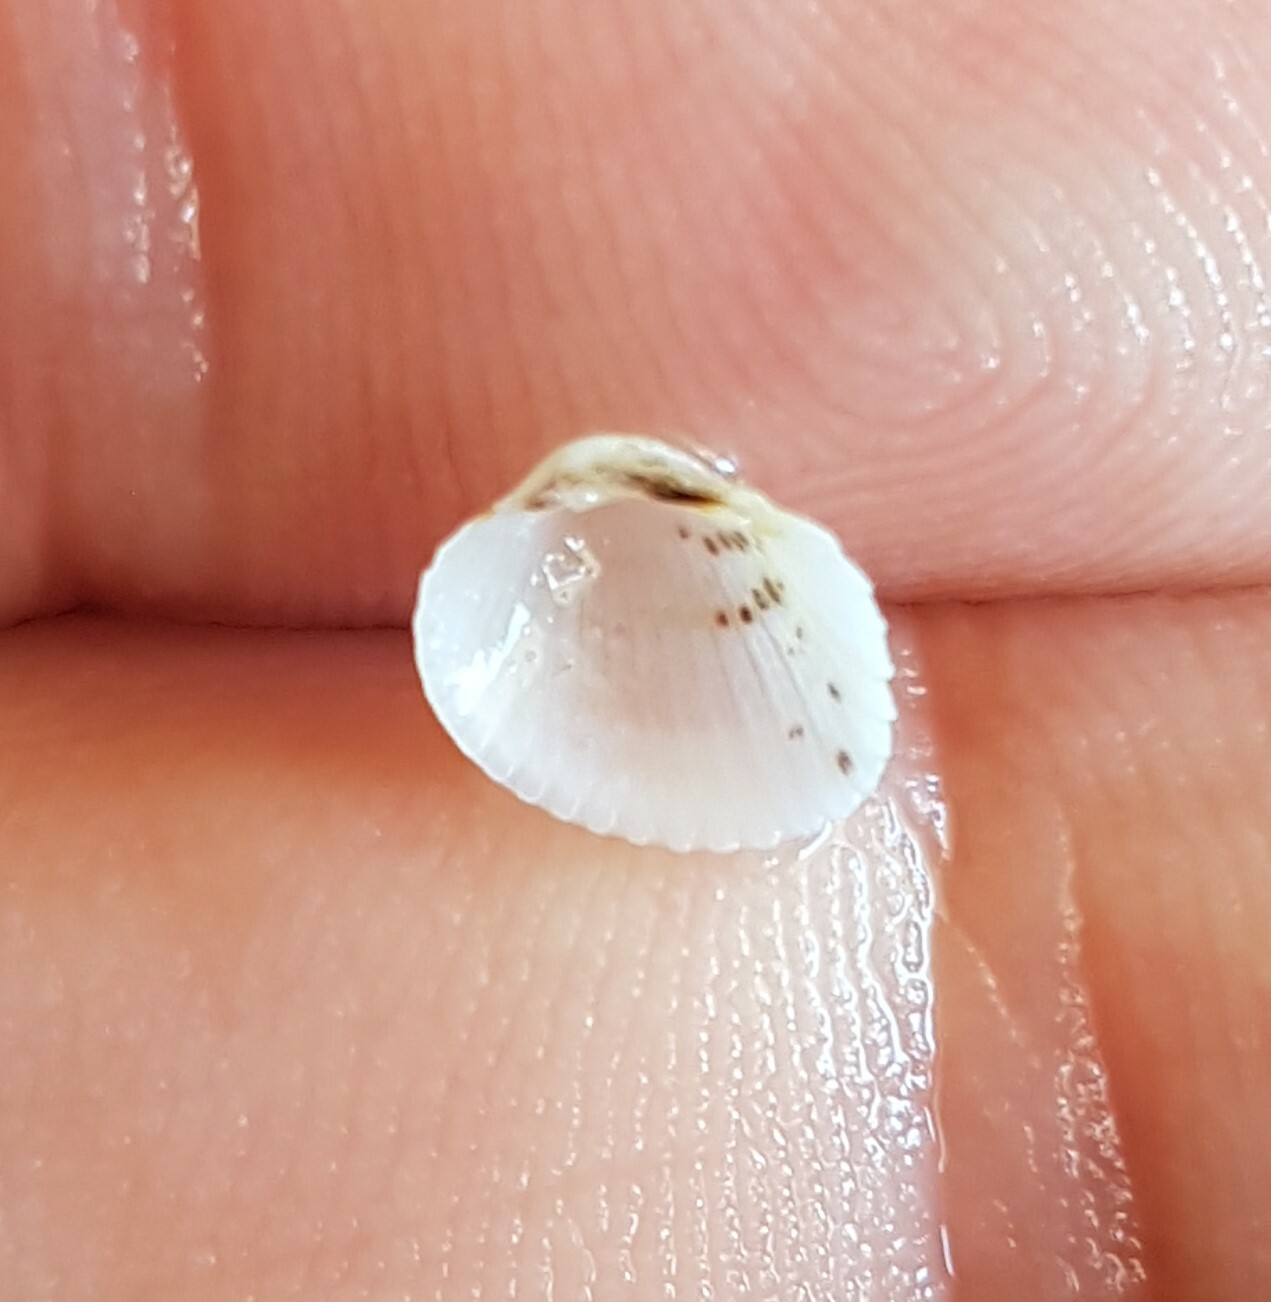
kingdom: Animalia
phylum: Mollusca
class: Bivalvia
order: Cardiida
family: Cardiidae
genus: Parvicardium
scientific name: Parvicardium scriptum
